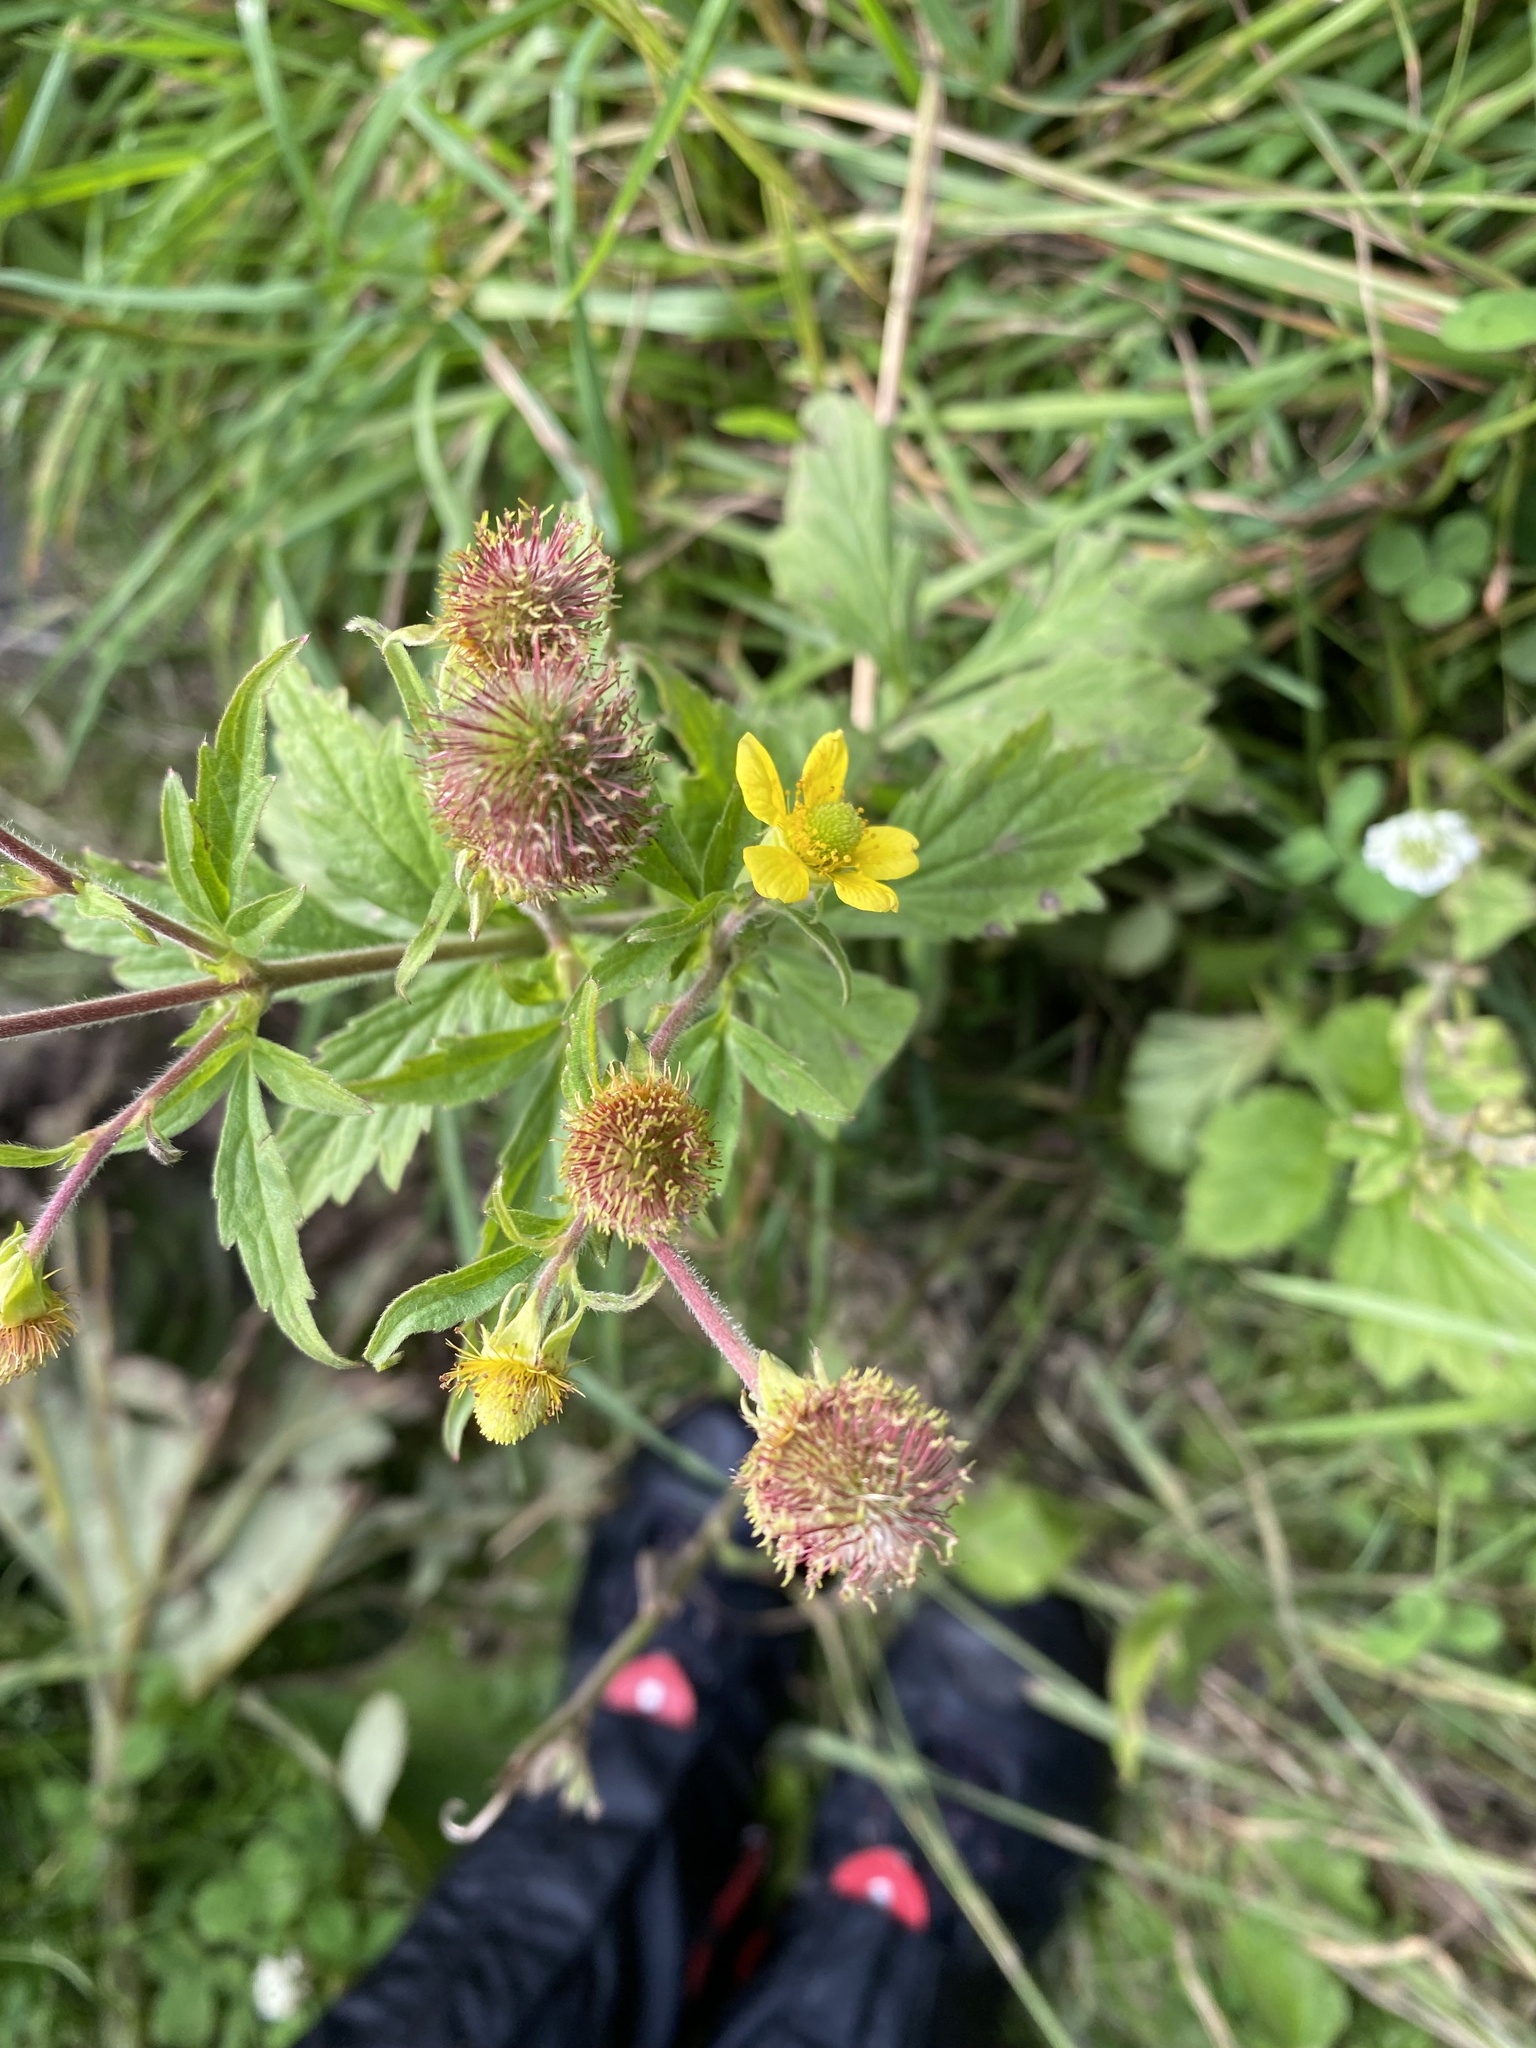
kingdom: Plantae
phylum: Tracheophyta
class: Magnoliopsida
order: Rosales
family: Rosaceae
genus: Geum
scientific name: Geum aleppicum
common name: Yellow avens
